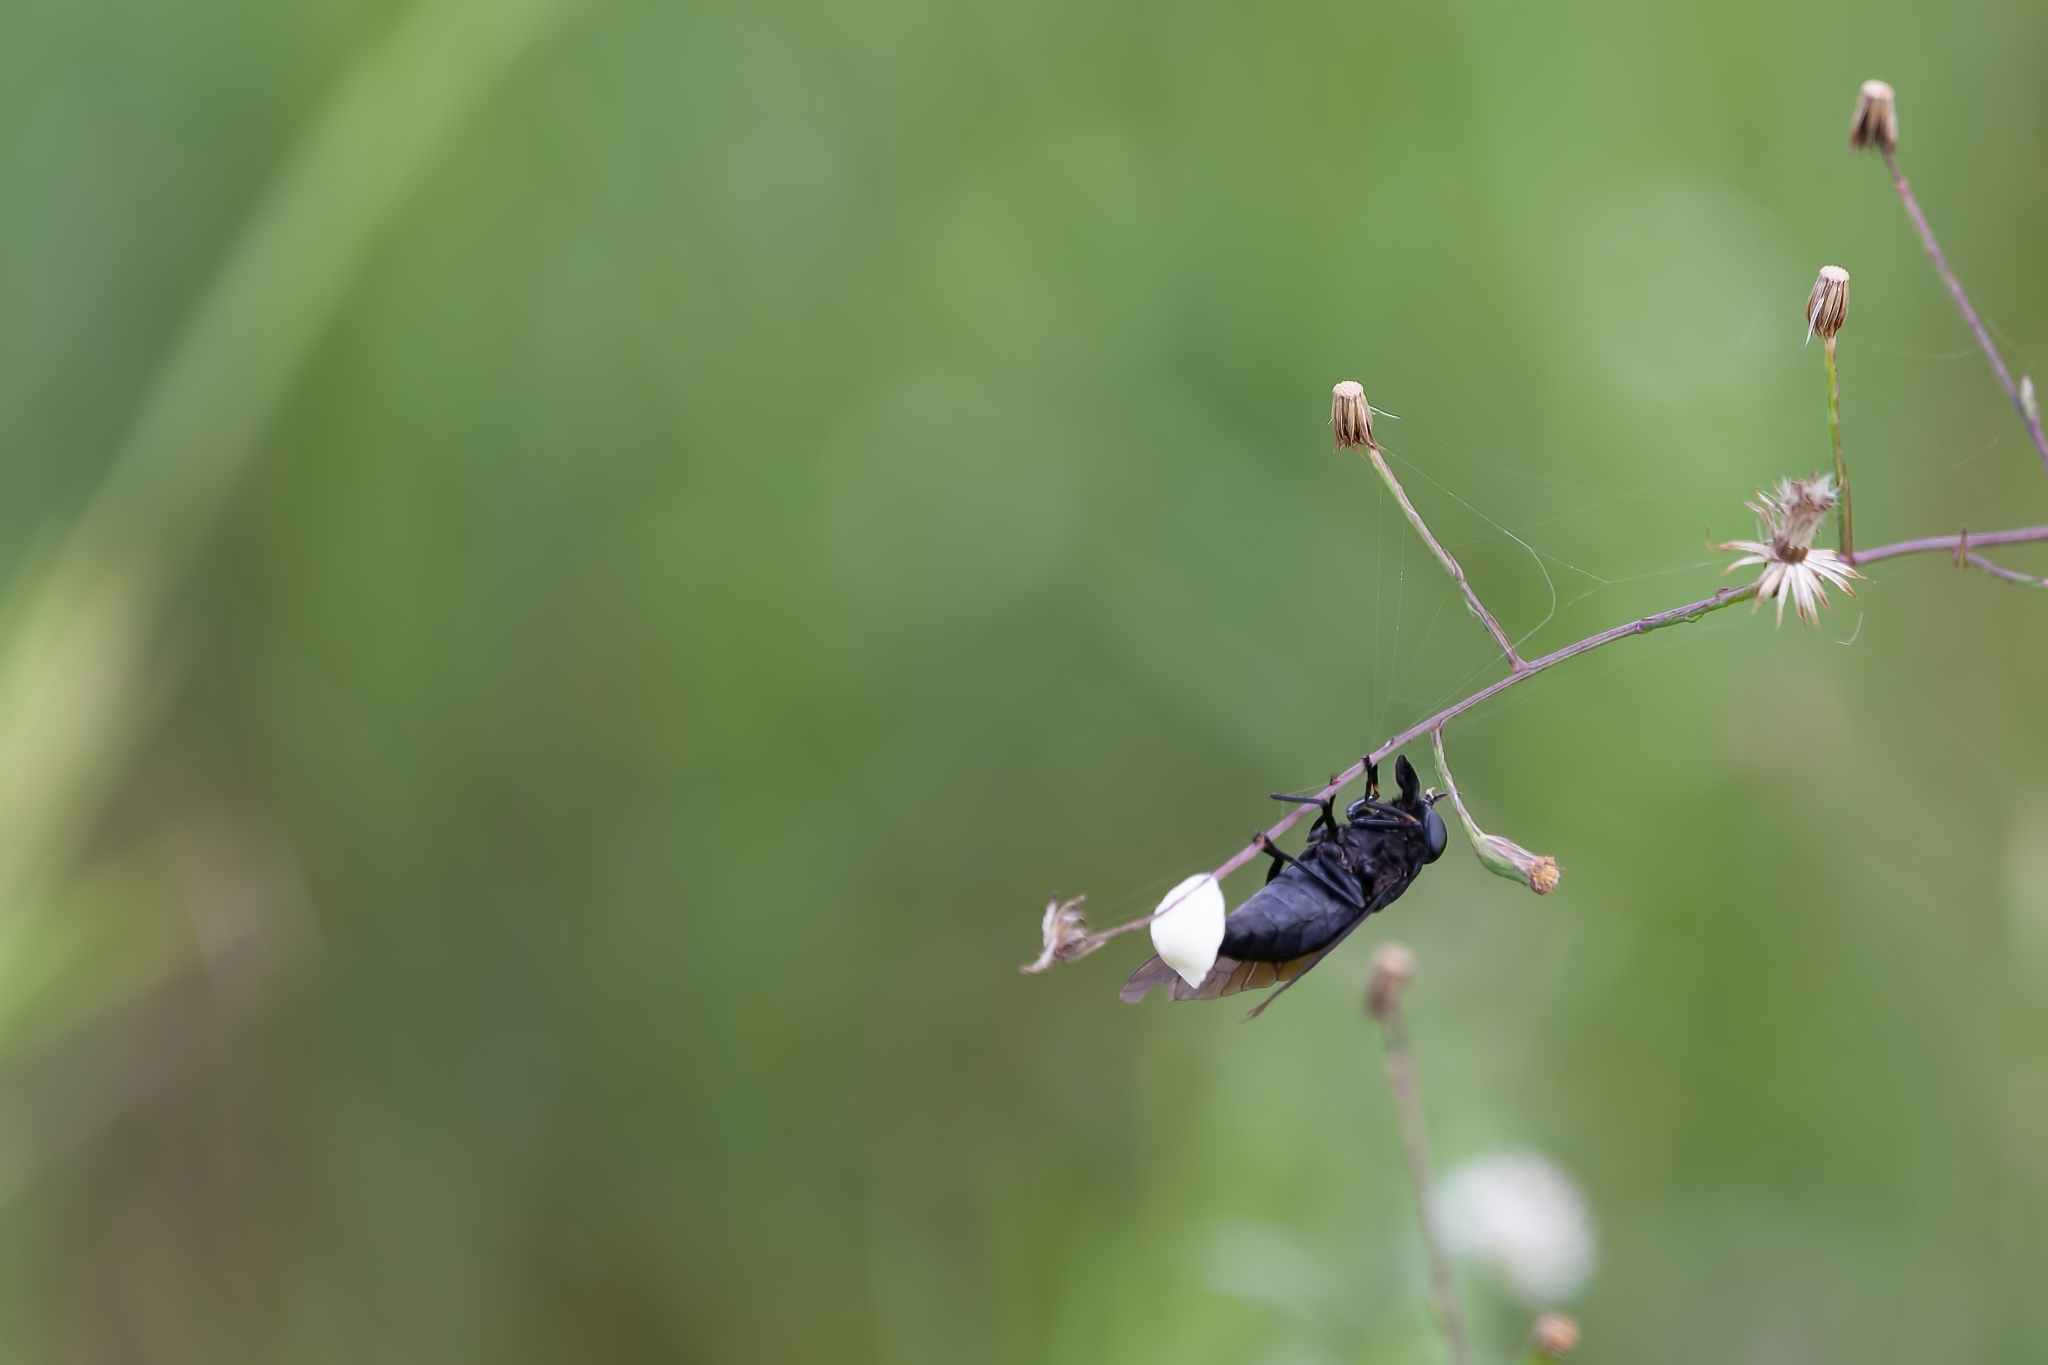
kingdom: Animalia
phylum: Arthropoda
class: Insecta
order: Diptera
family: Tabanidae
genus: Tabanus
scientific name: Tabanus atratus
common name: Black horse fly
